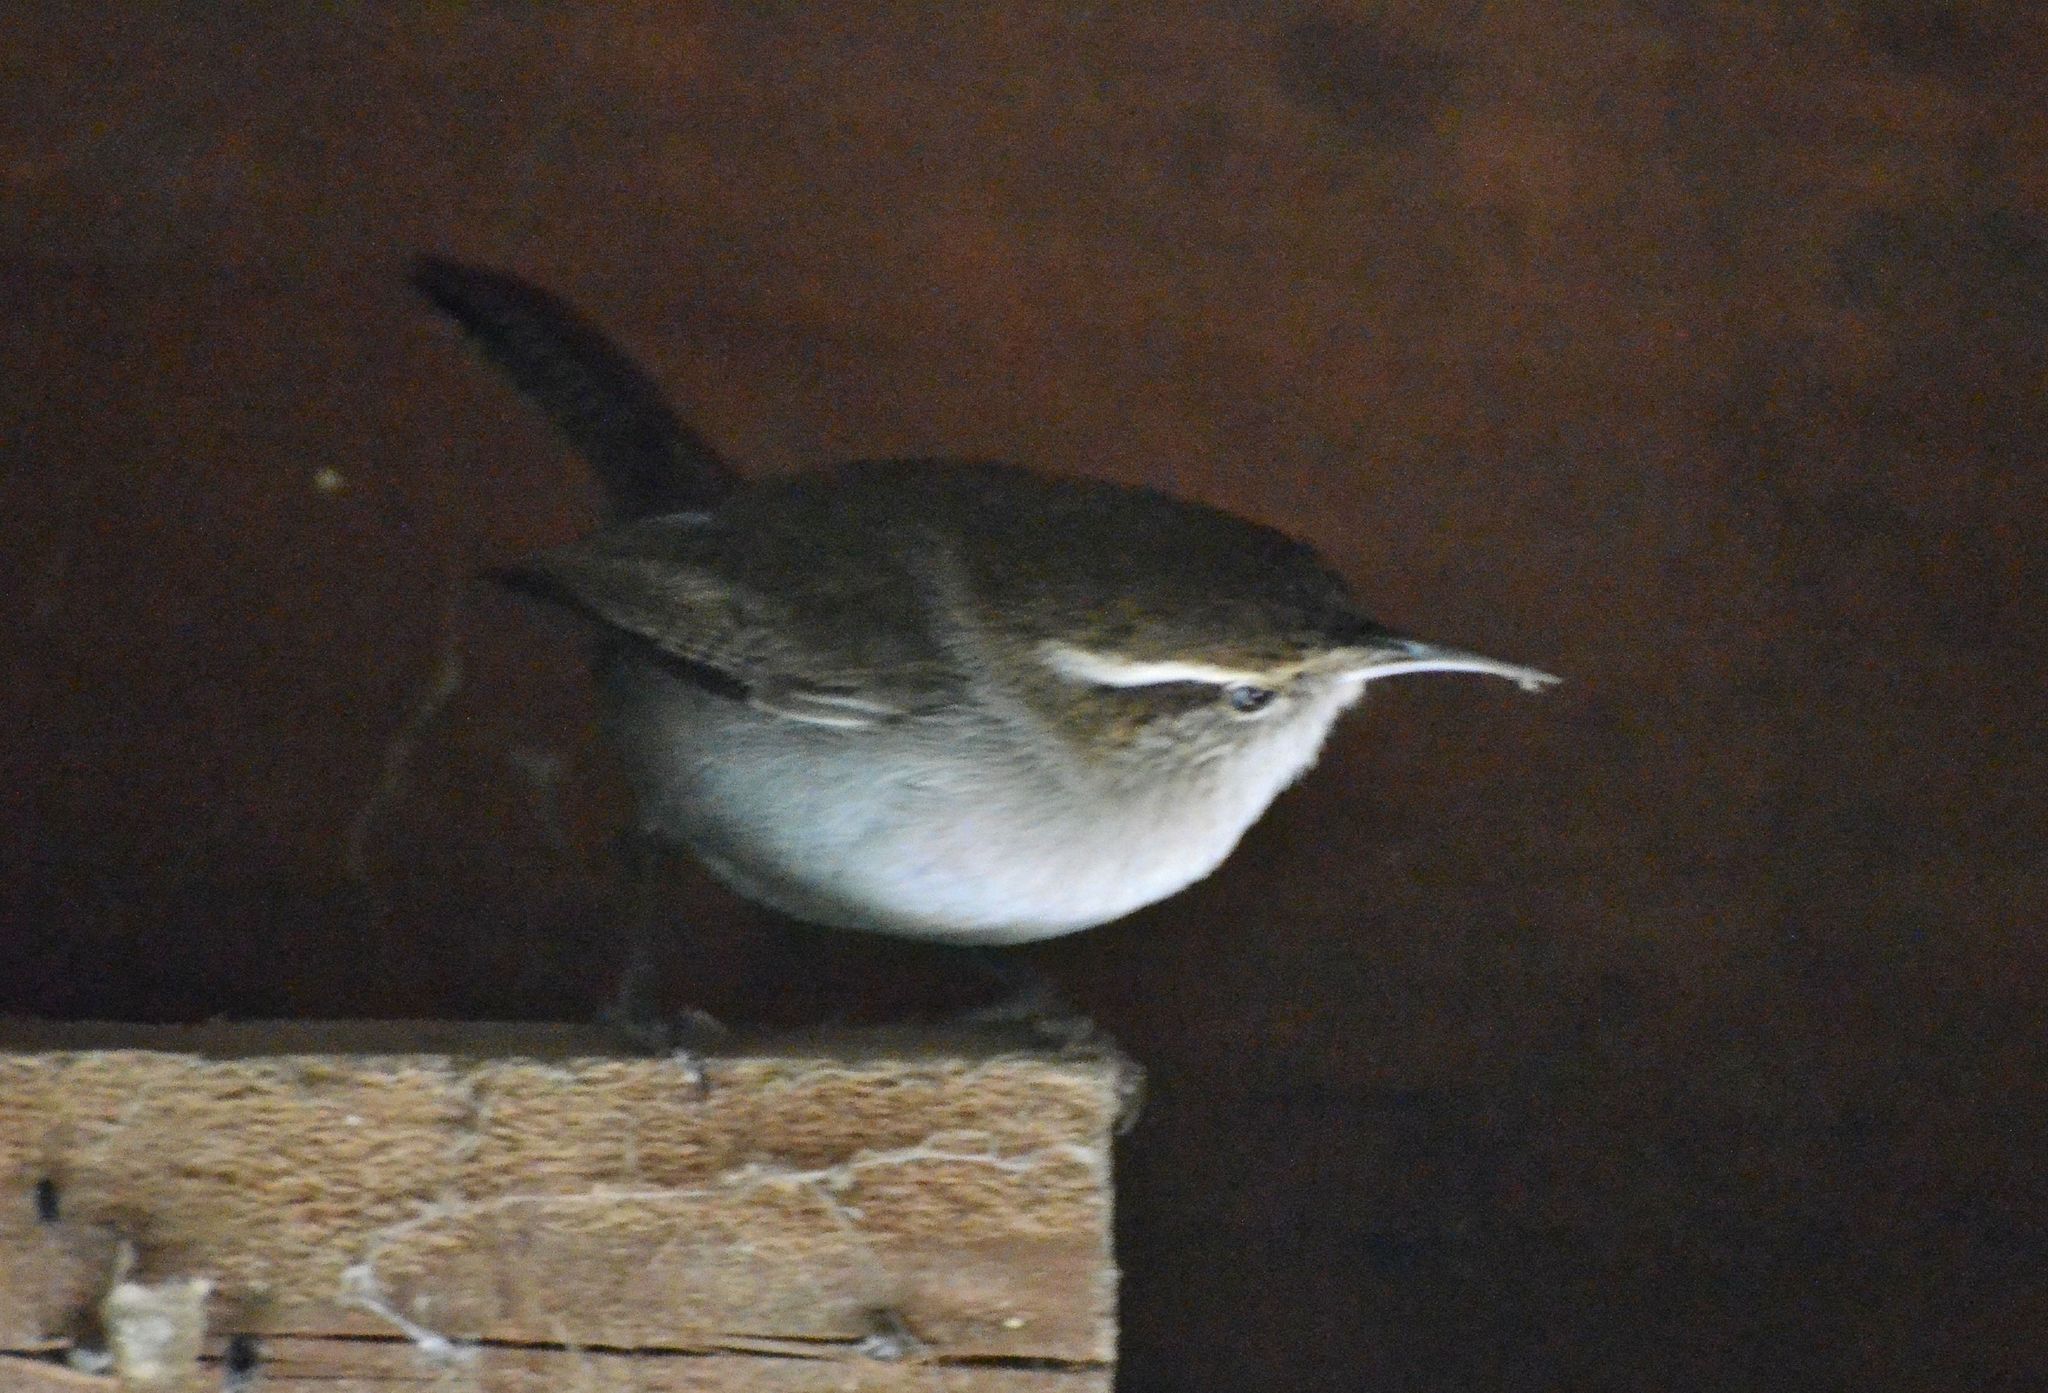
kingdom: Animalia
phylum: Chordata
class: Aves
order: Passeriformes
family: Troglodytidae
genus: Thryomanes
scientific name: Thryomanes bewickii
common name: Bewick's wren
